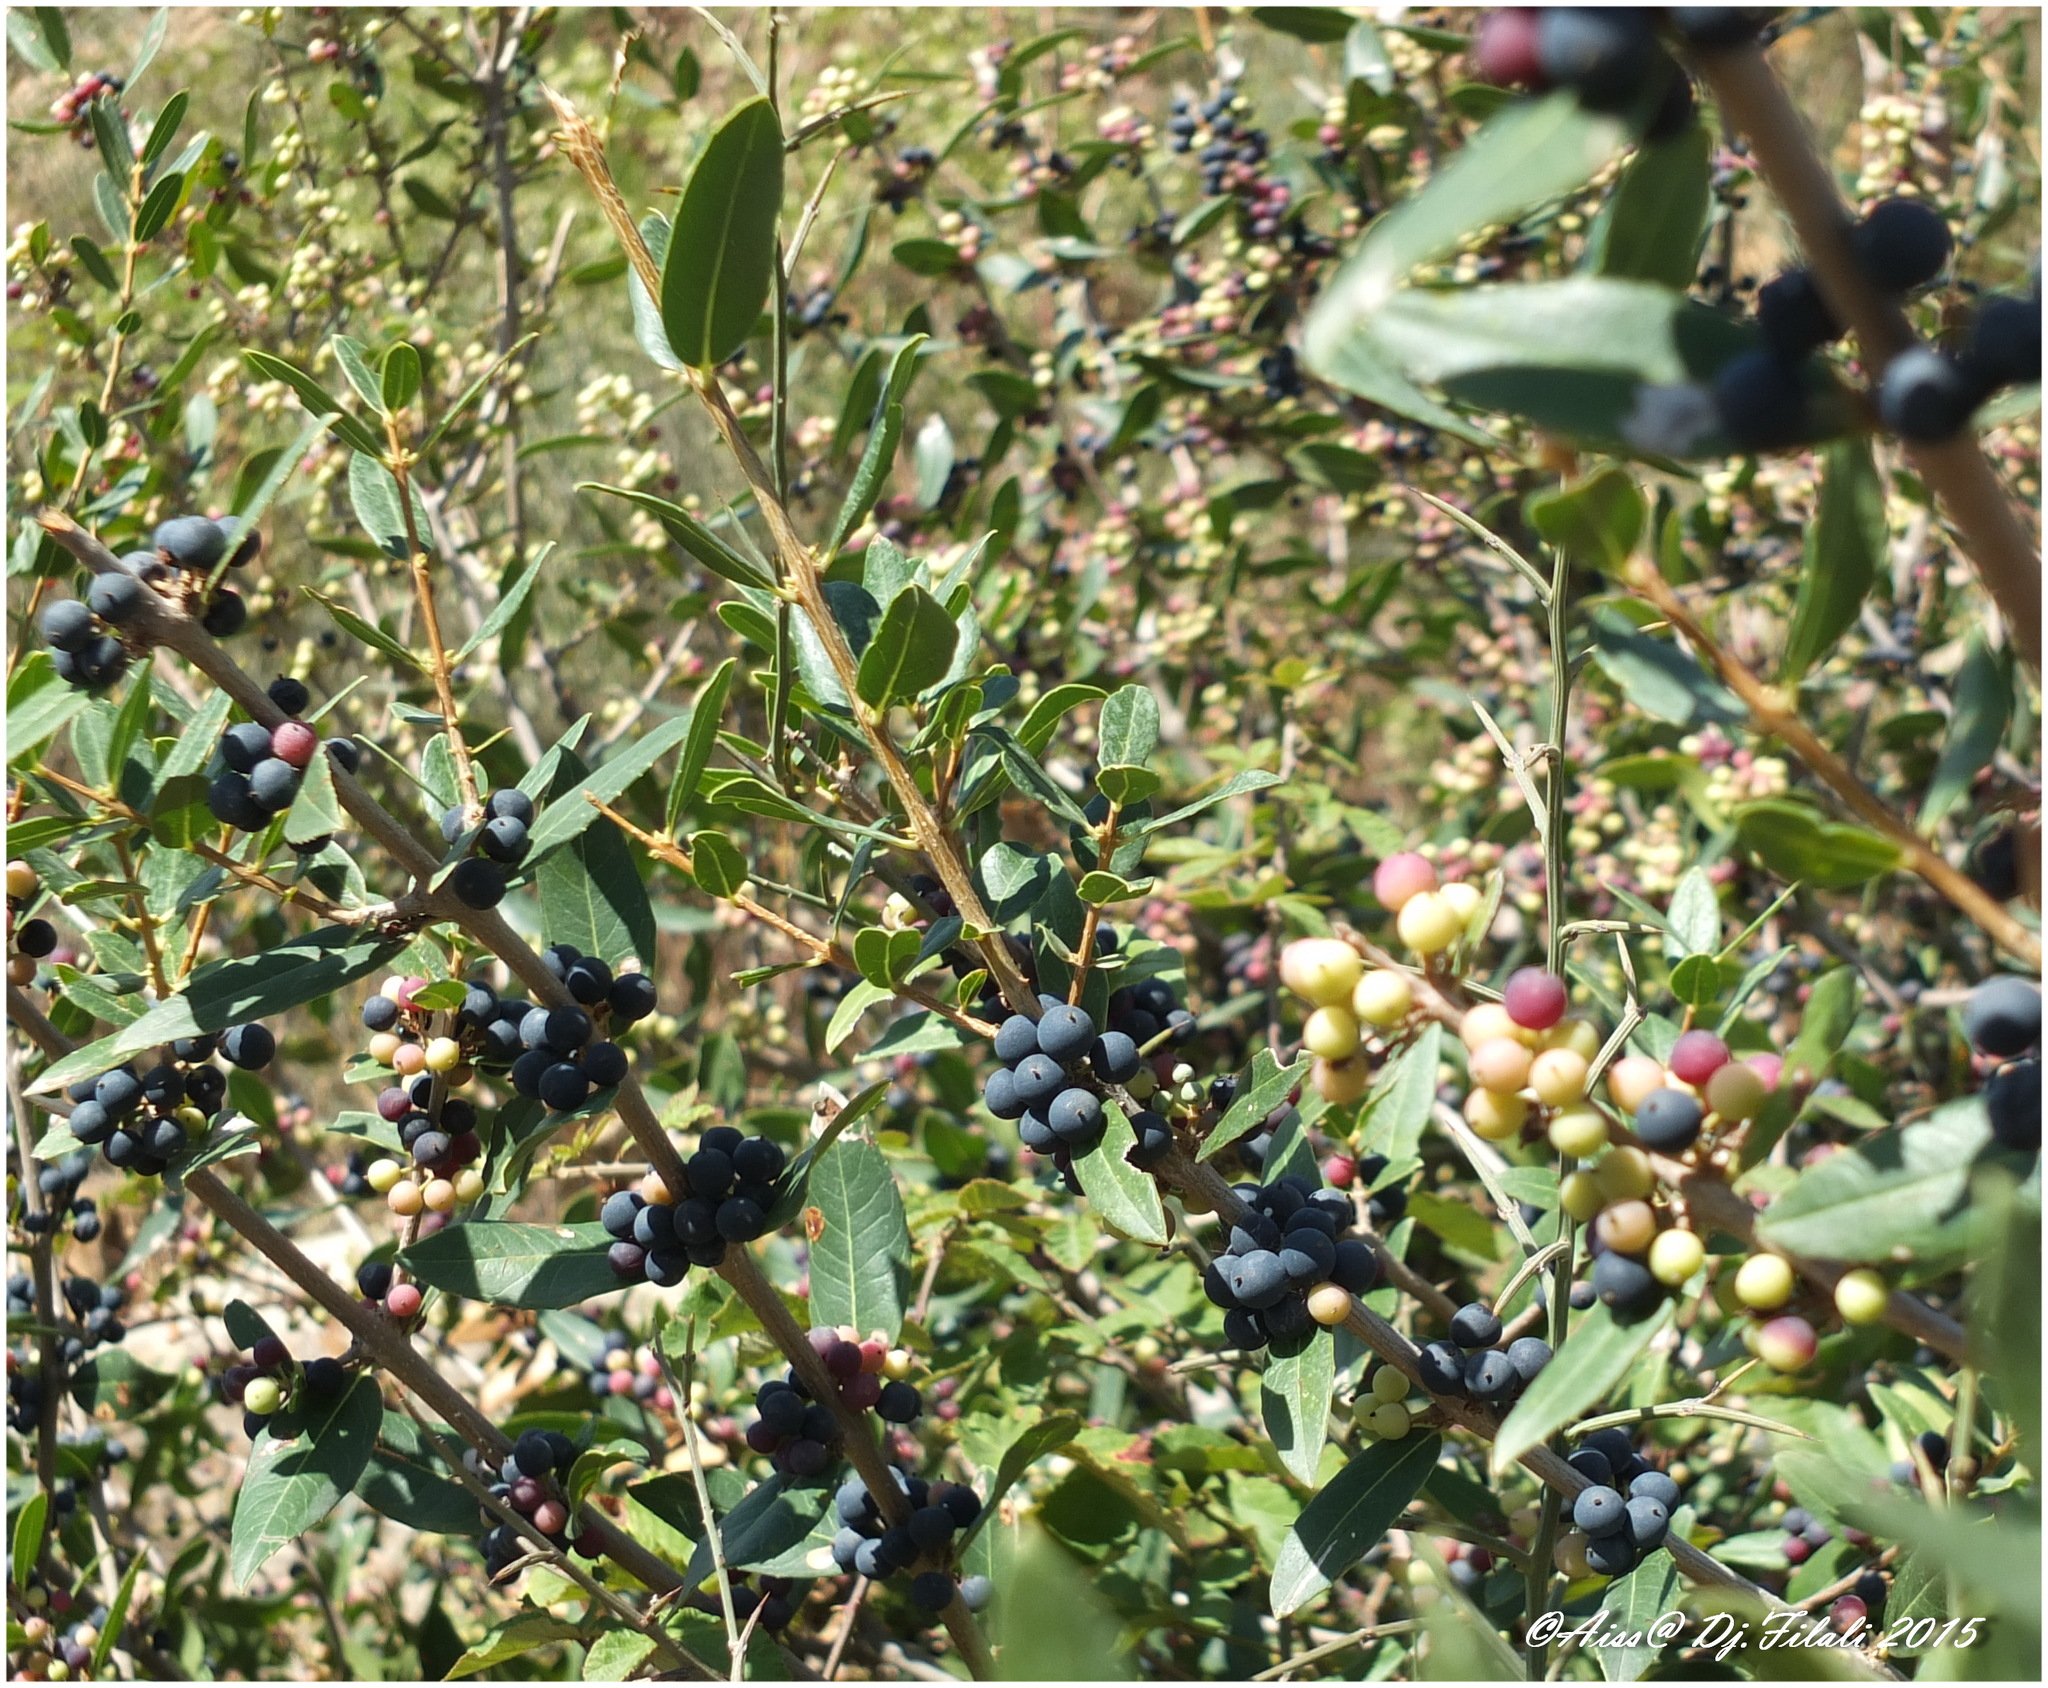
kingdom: Plantae
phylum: Tracheophyta
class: Magnoliopsida
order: Lamiales
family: Oleaceae
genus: Phillyrea
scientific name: Phillyrea latifolia
